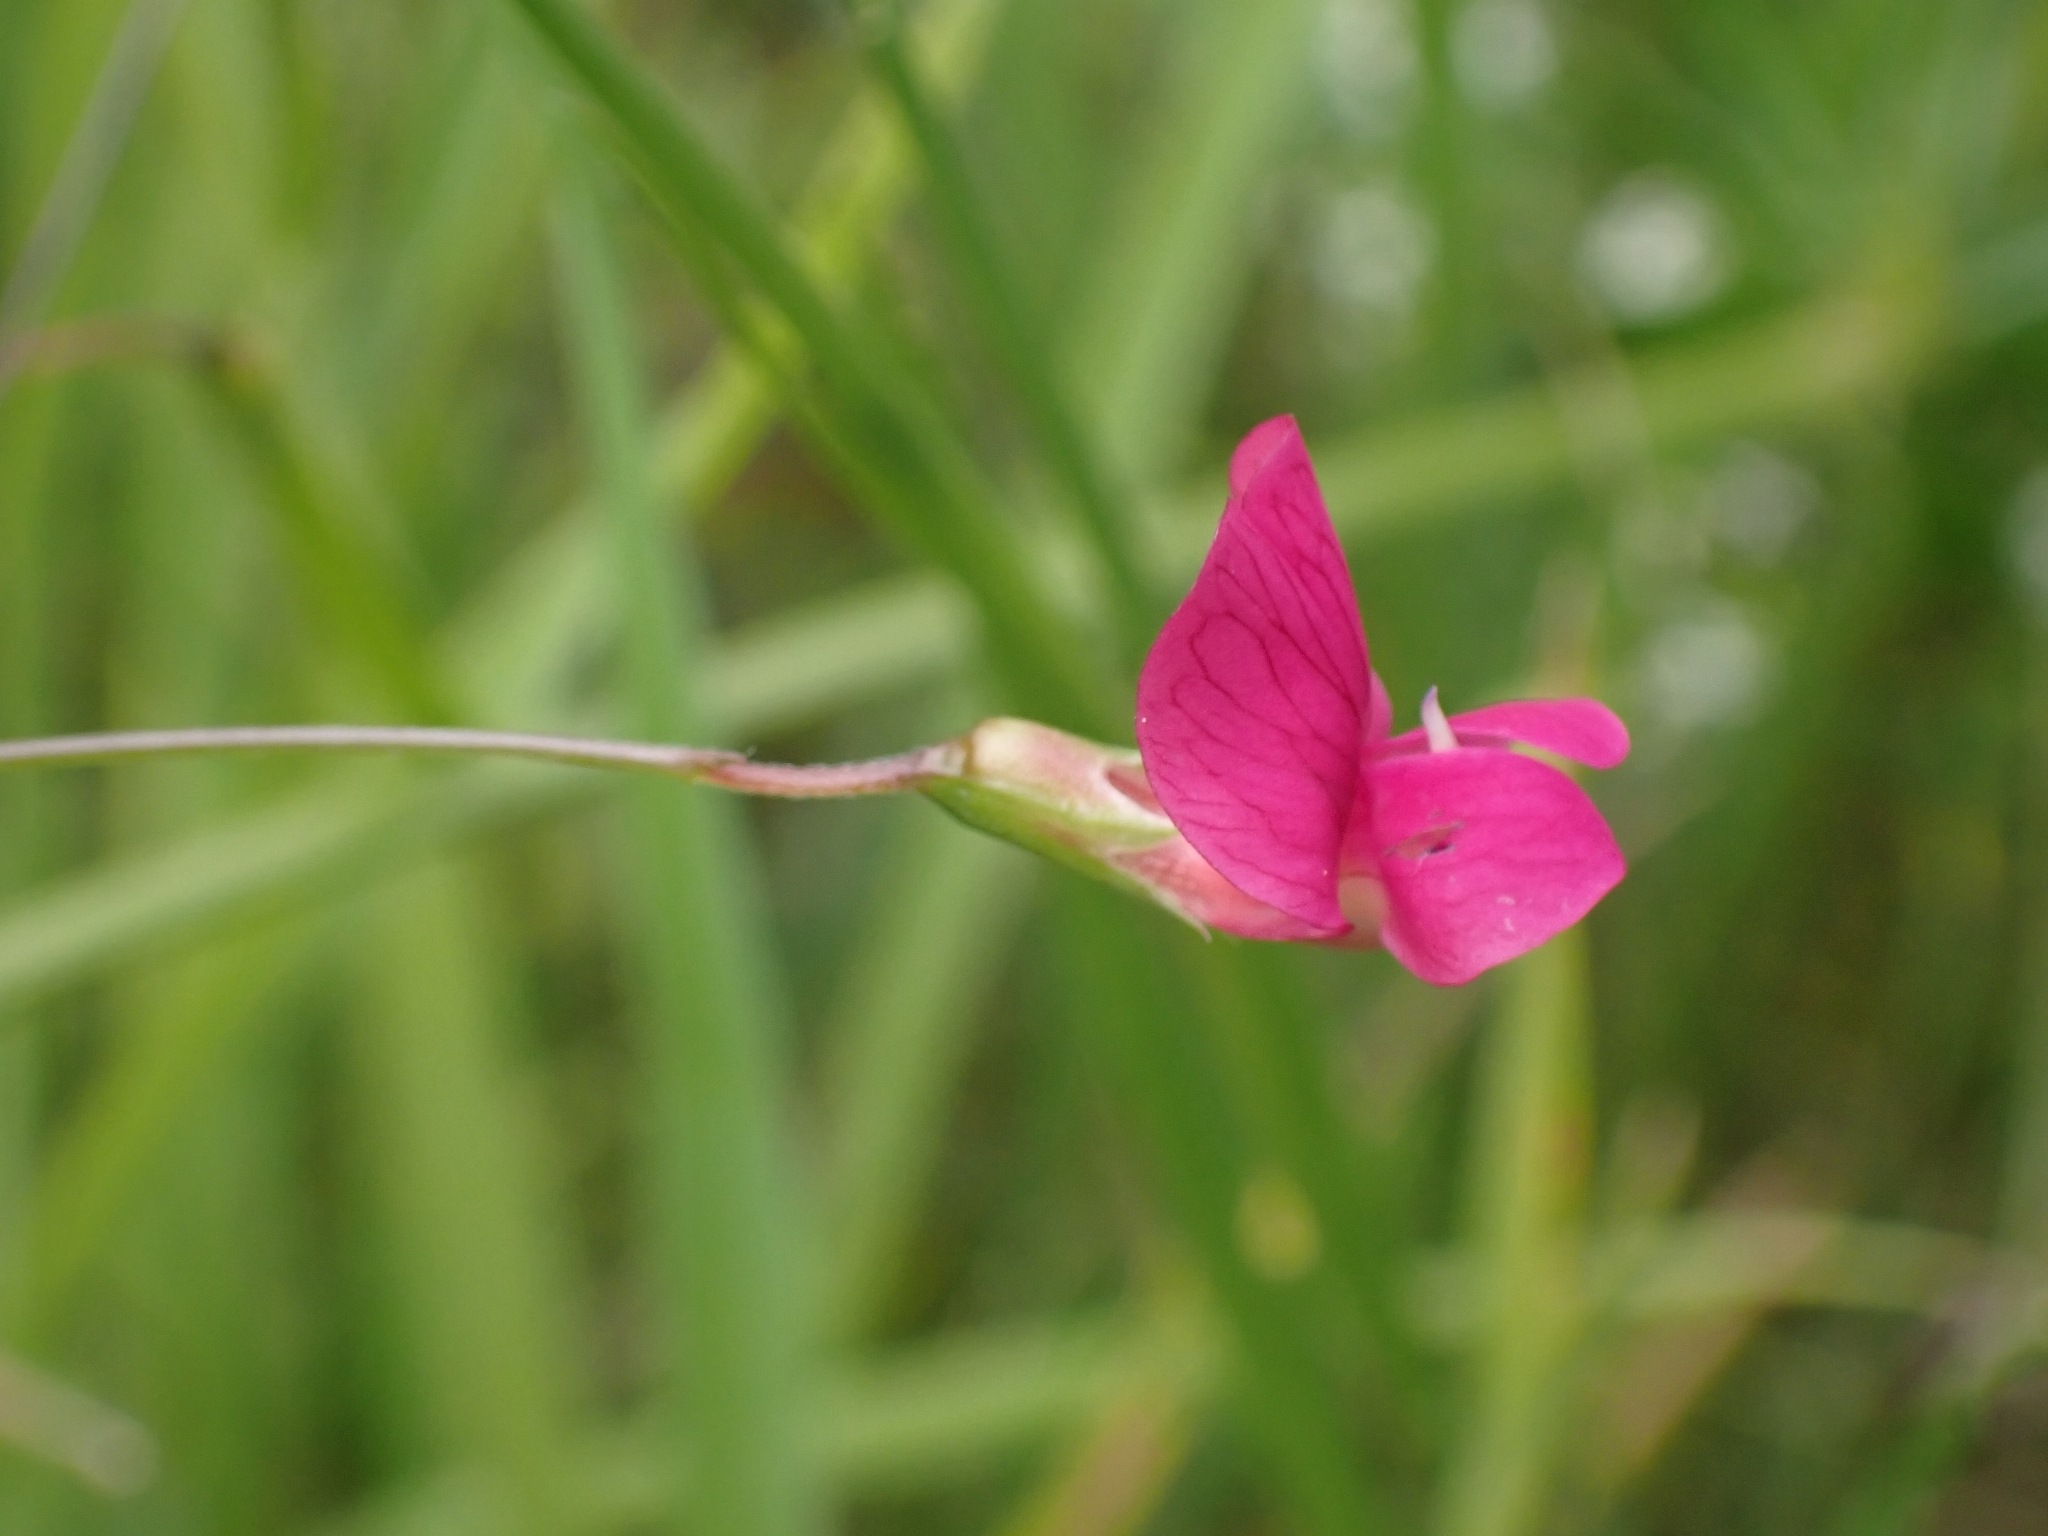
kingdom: Plantae
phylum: Tracheophyta
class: Magnoliopsida
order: Fabales
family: Fabaceae
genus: Lathyrus
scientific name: Lathyrus nissolia
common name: Grass vetchling
